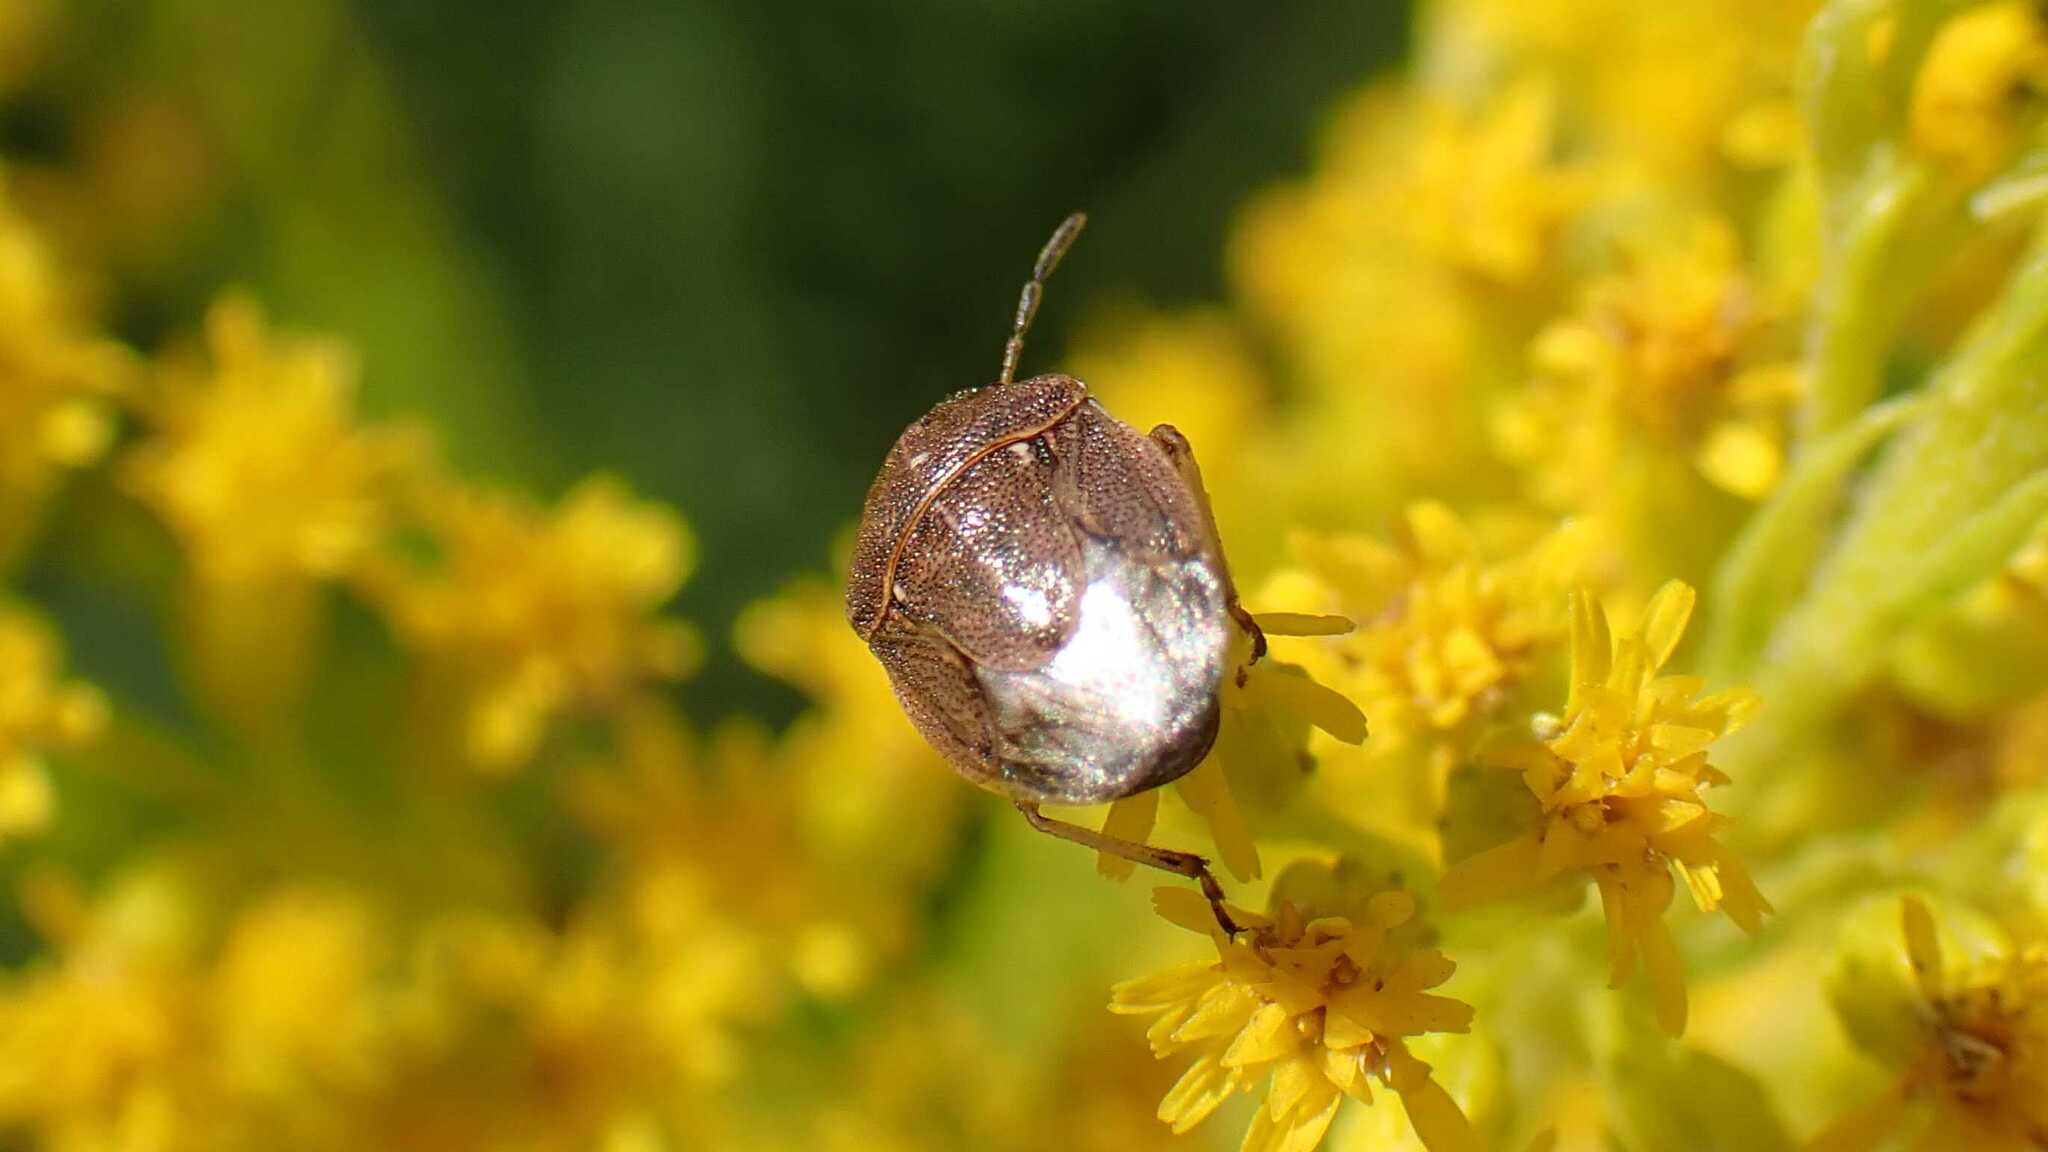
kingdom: Animalia
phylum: Arthropoda
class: Insecta
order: Hemiptera
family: Pentatomidae
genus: Neottiglossa
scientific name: Neottiglossa pusilla
